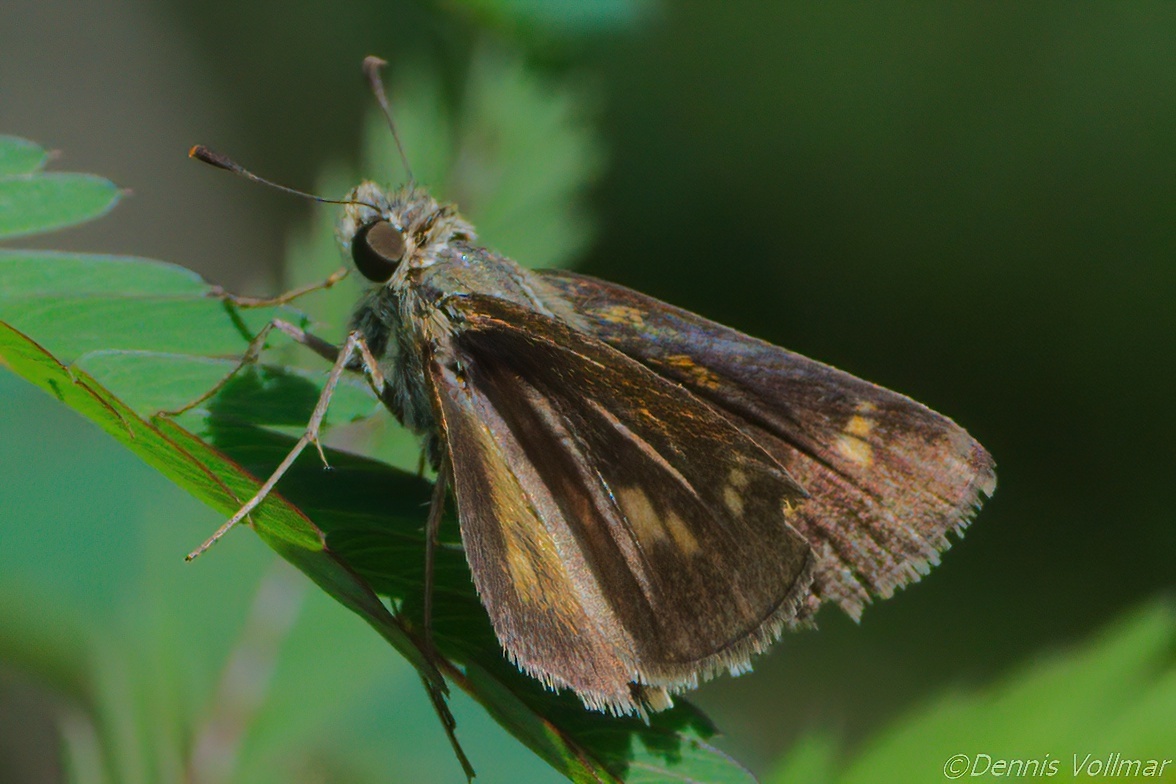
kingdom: Animalia
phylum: Arthropoda
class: Insecta
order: Lepidoptera
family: Hesperiidae
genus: Polites
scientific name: Polites otho
